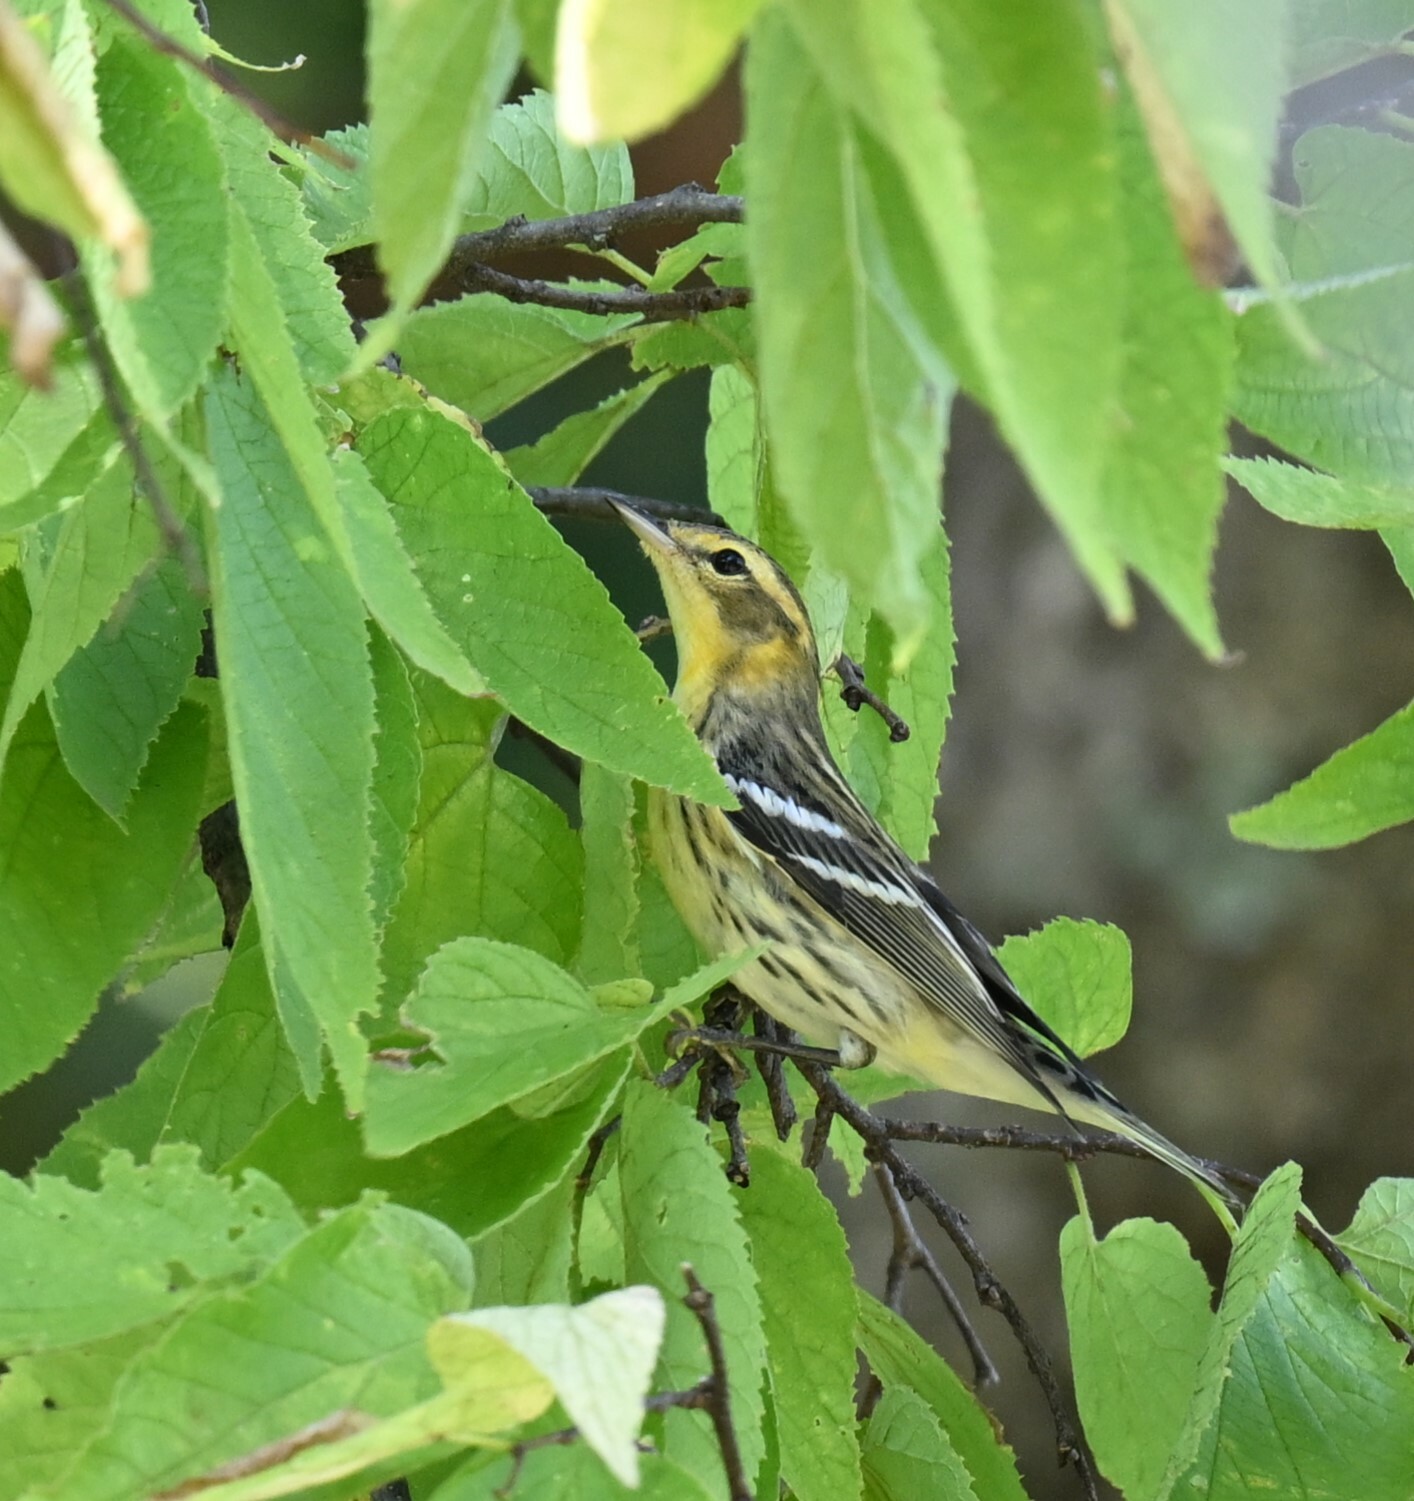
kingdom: Animalia
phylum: Chordata
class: Aves
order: Passeriformes
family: Parulidae
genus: Setophaga
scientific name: Setophaga fusca
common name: Blackburnian warbler
